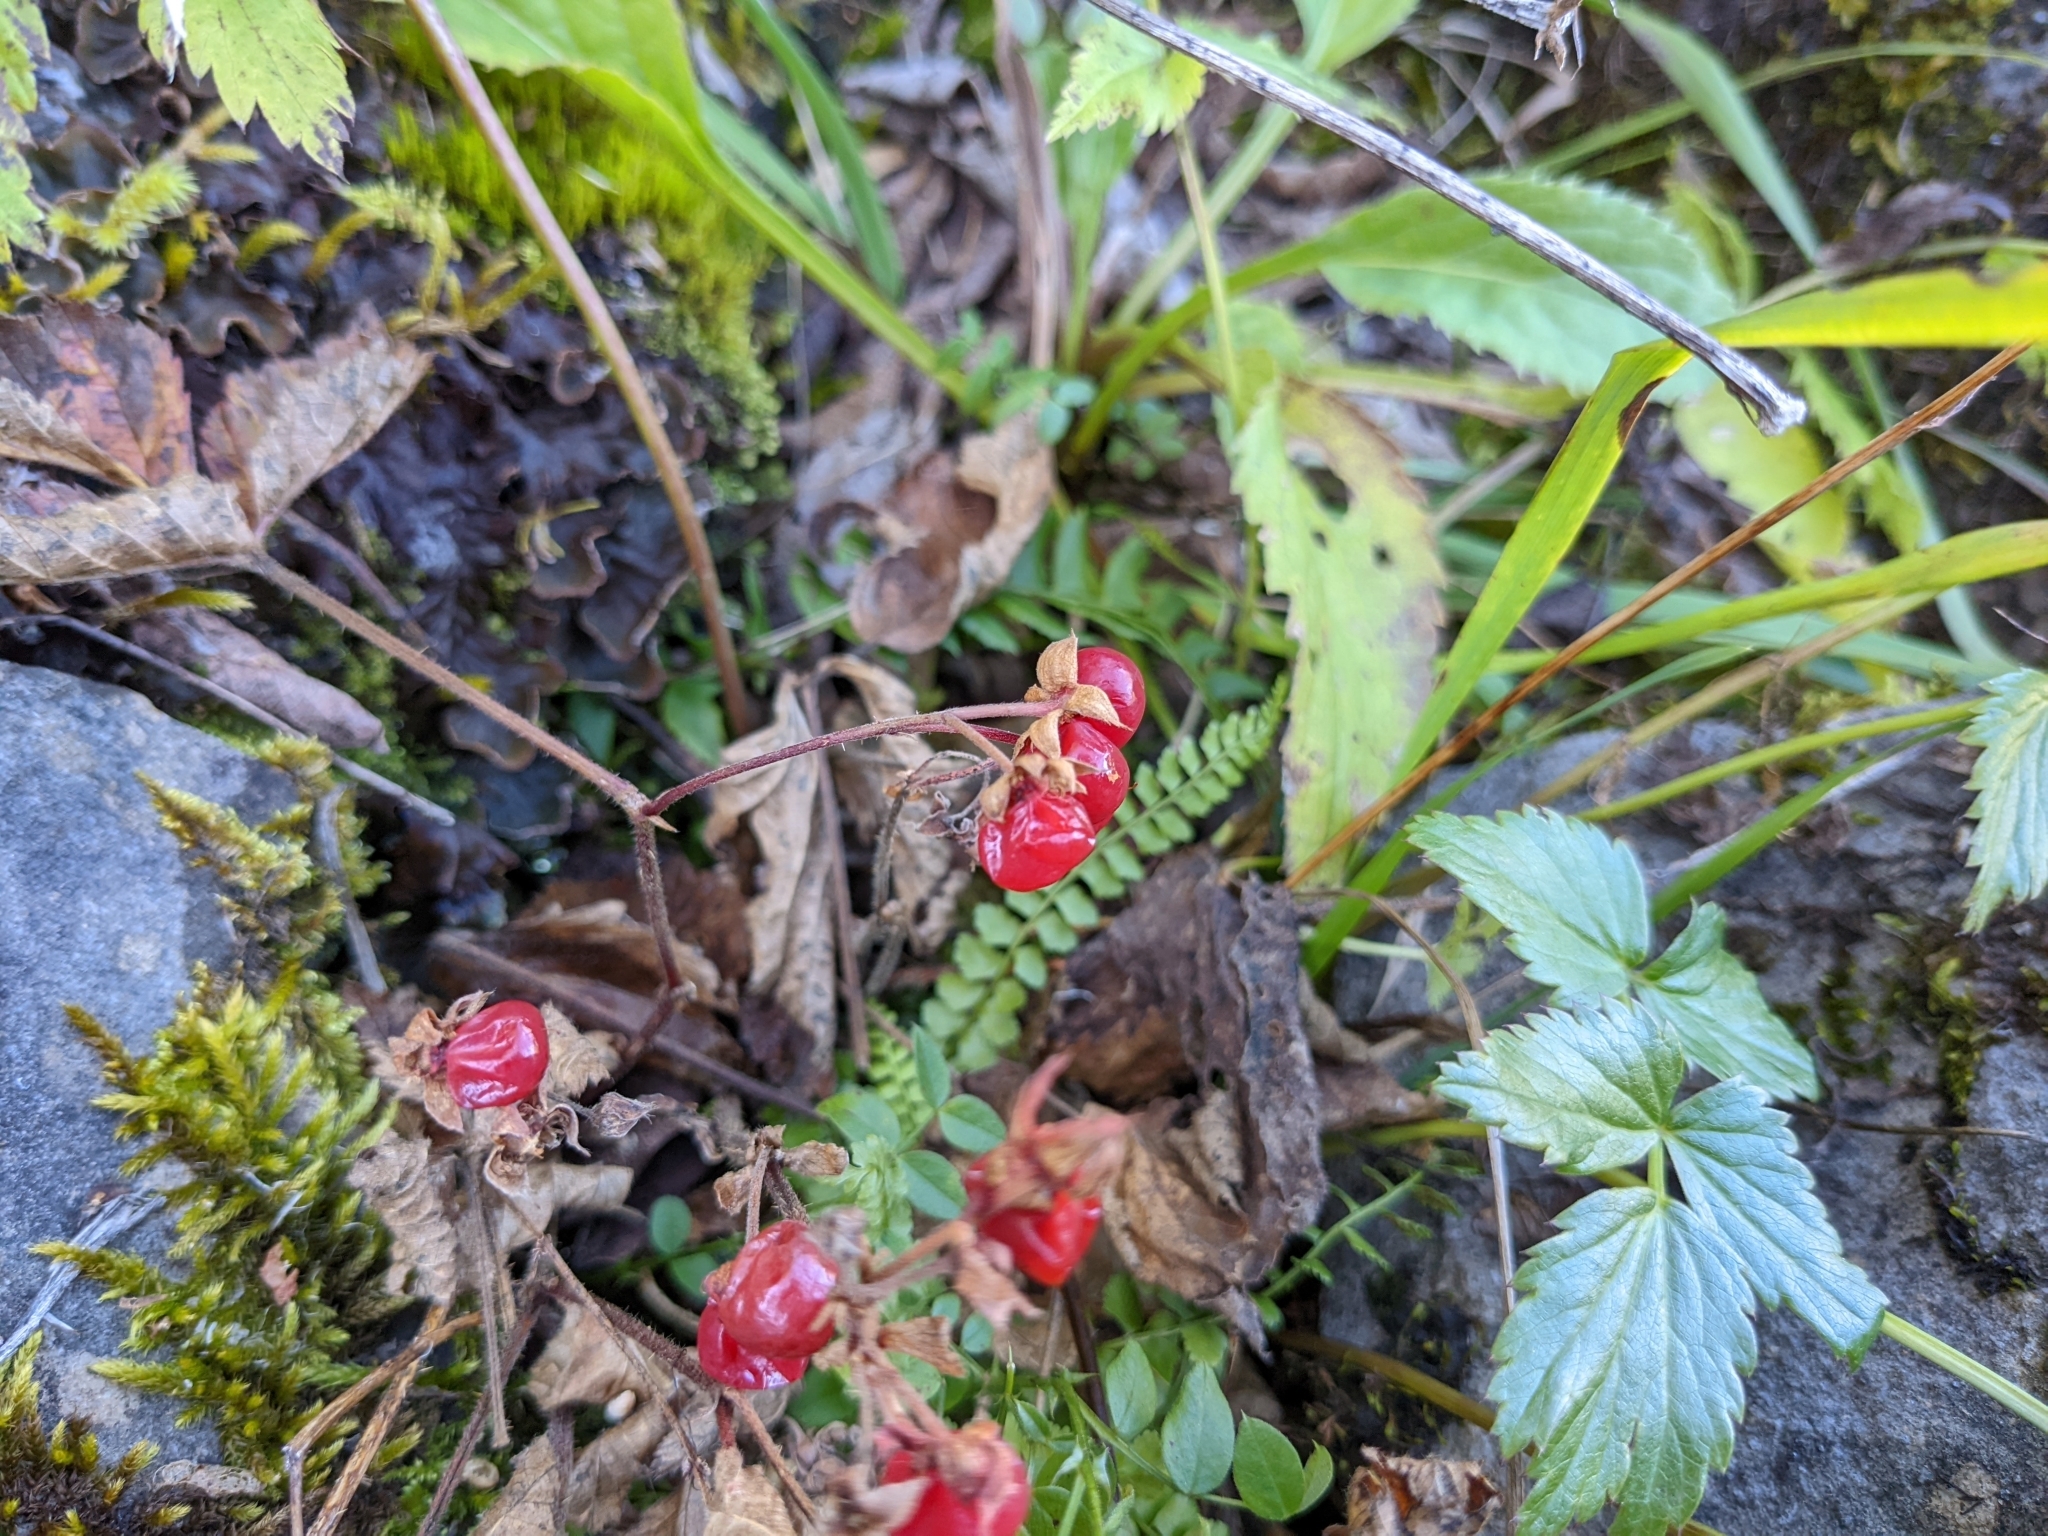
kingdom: Plantae
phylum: Tracheophyta
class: Magnoliopsida
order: Rosales
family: Rosaceae
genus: Rubus
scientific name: Rubus saxatilis
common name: Stone bramble
